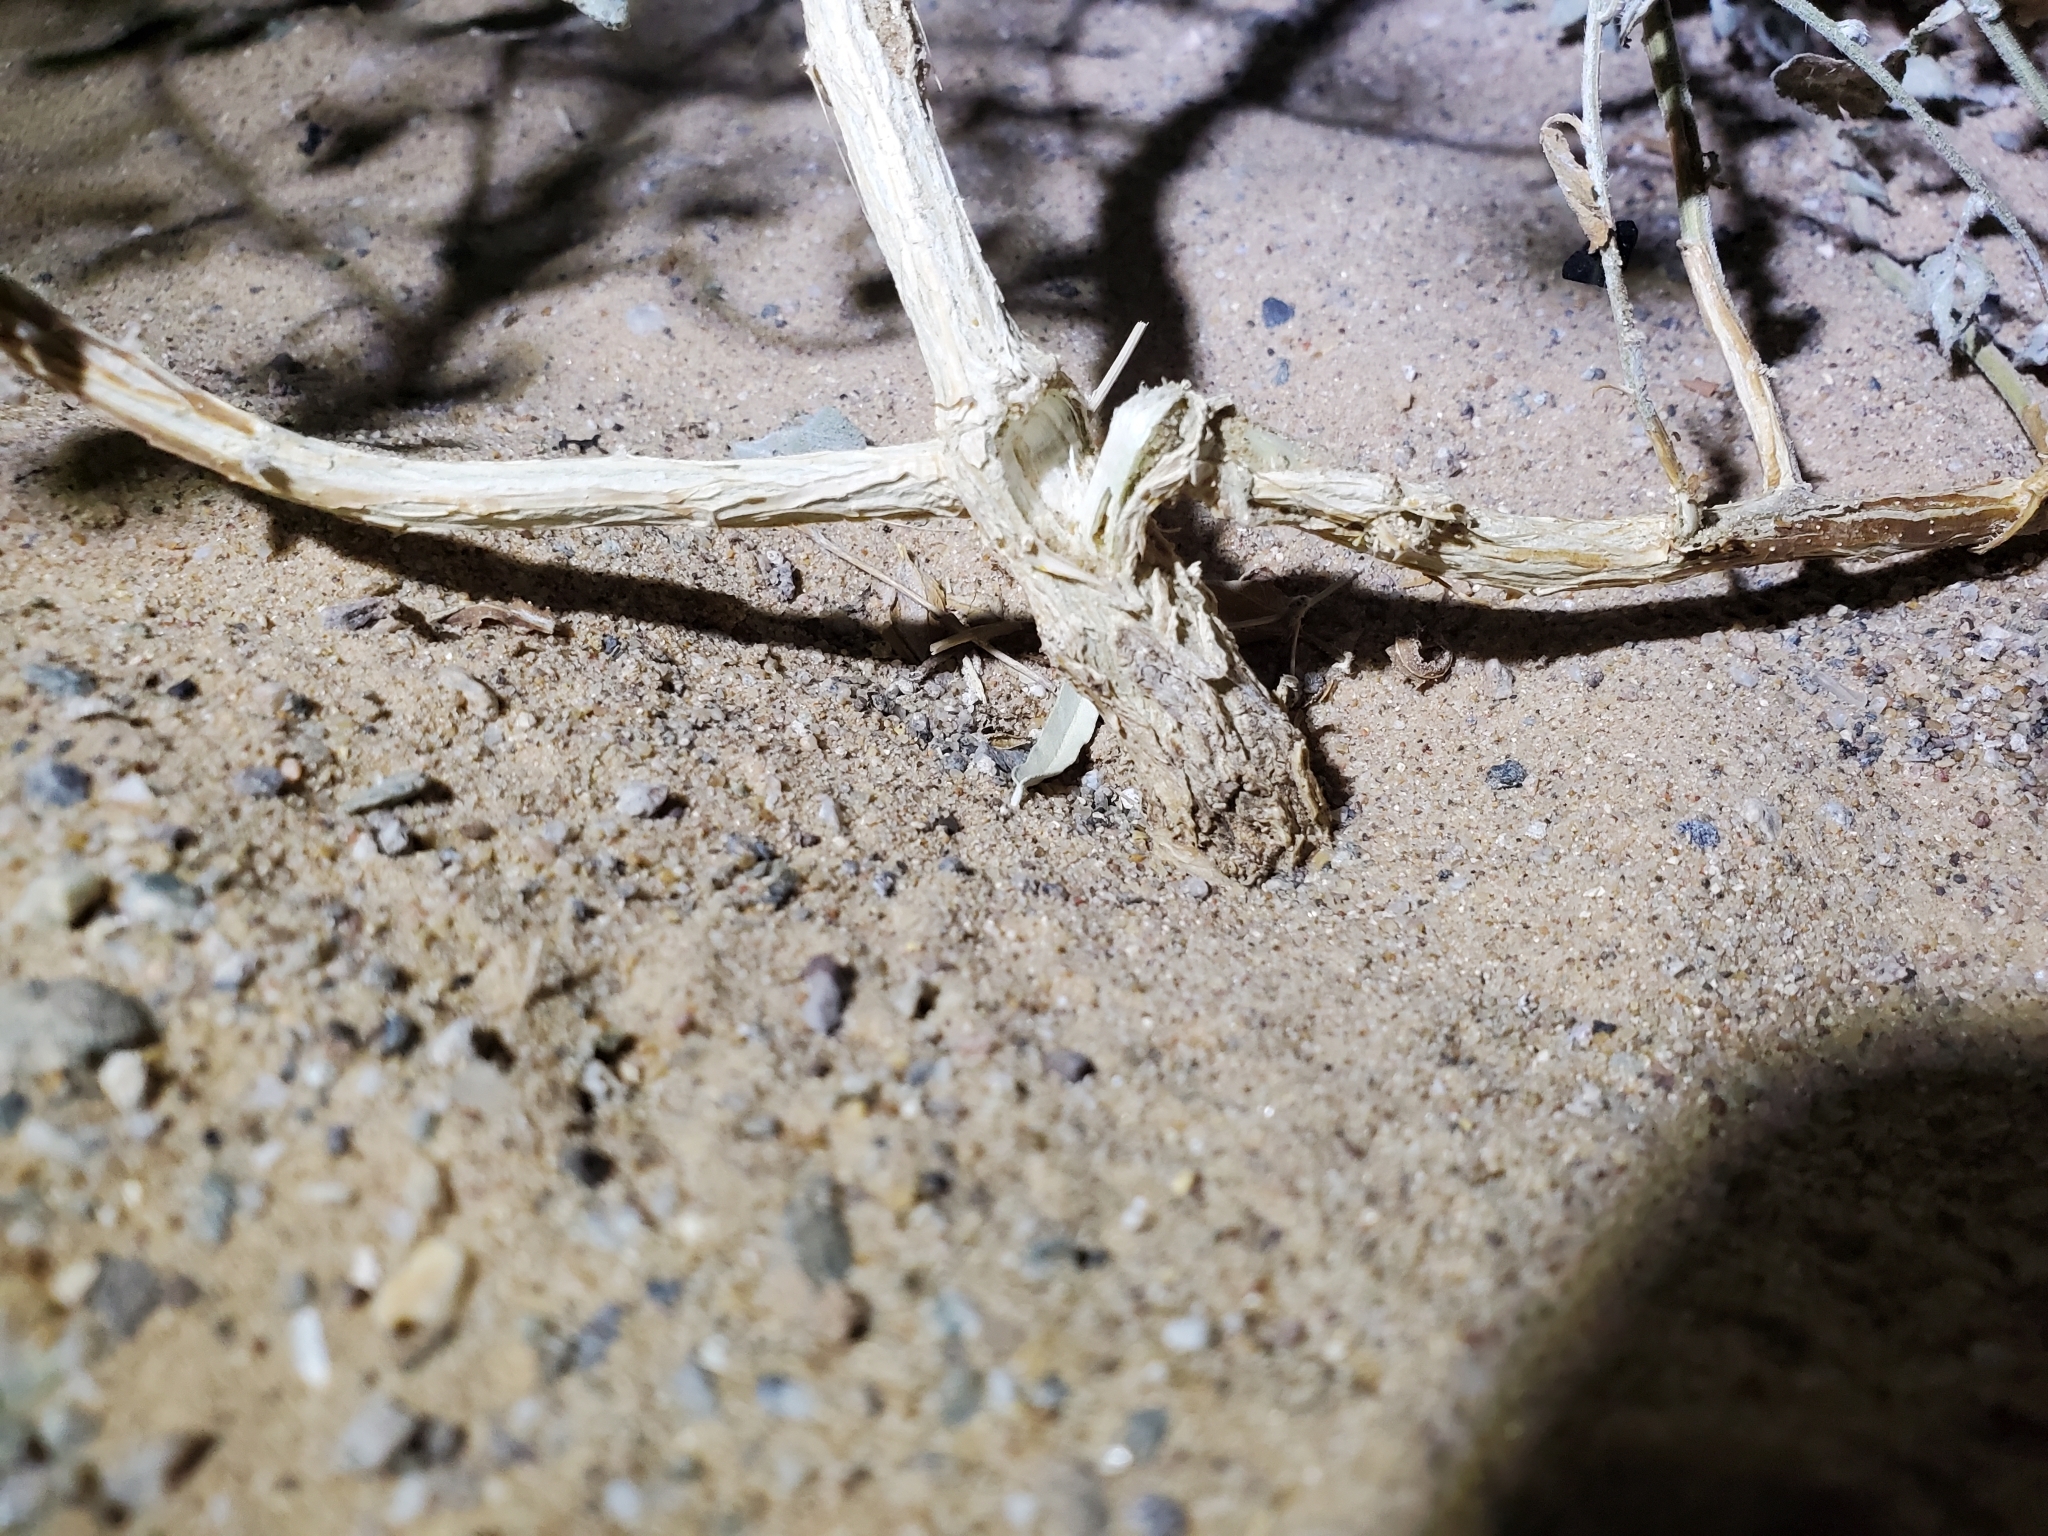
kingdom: Plantae
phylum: Tracheophyta
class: Magnoliopsida
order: Asterales
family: Asteraceae
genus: Dicoria
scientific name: Dicoria canescens
